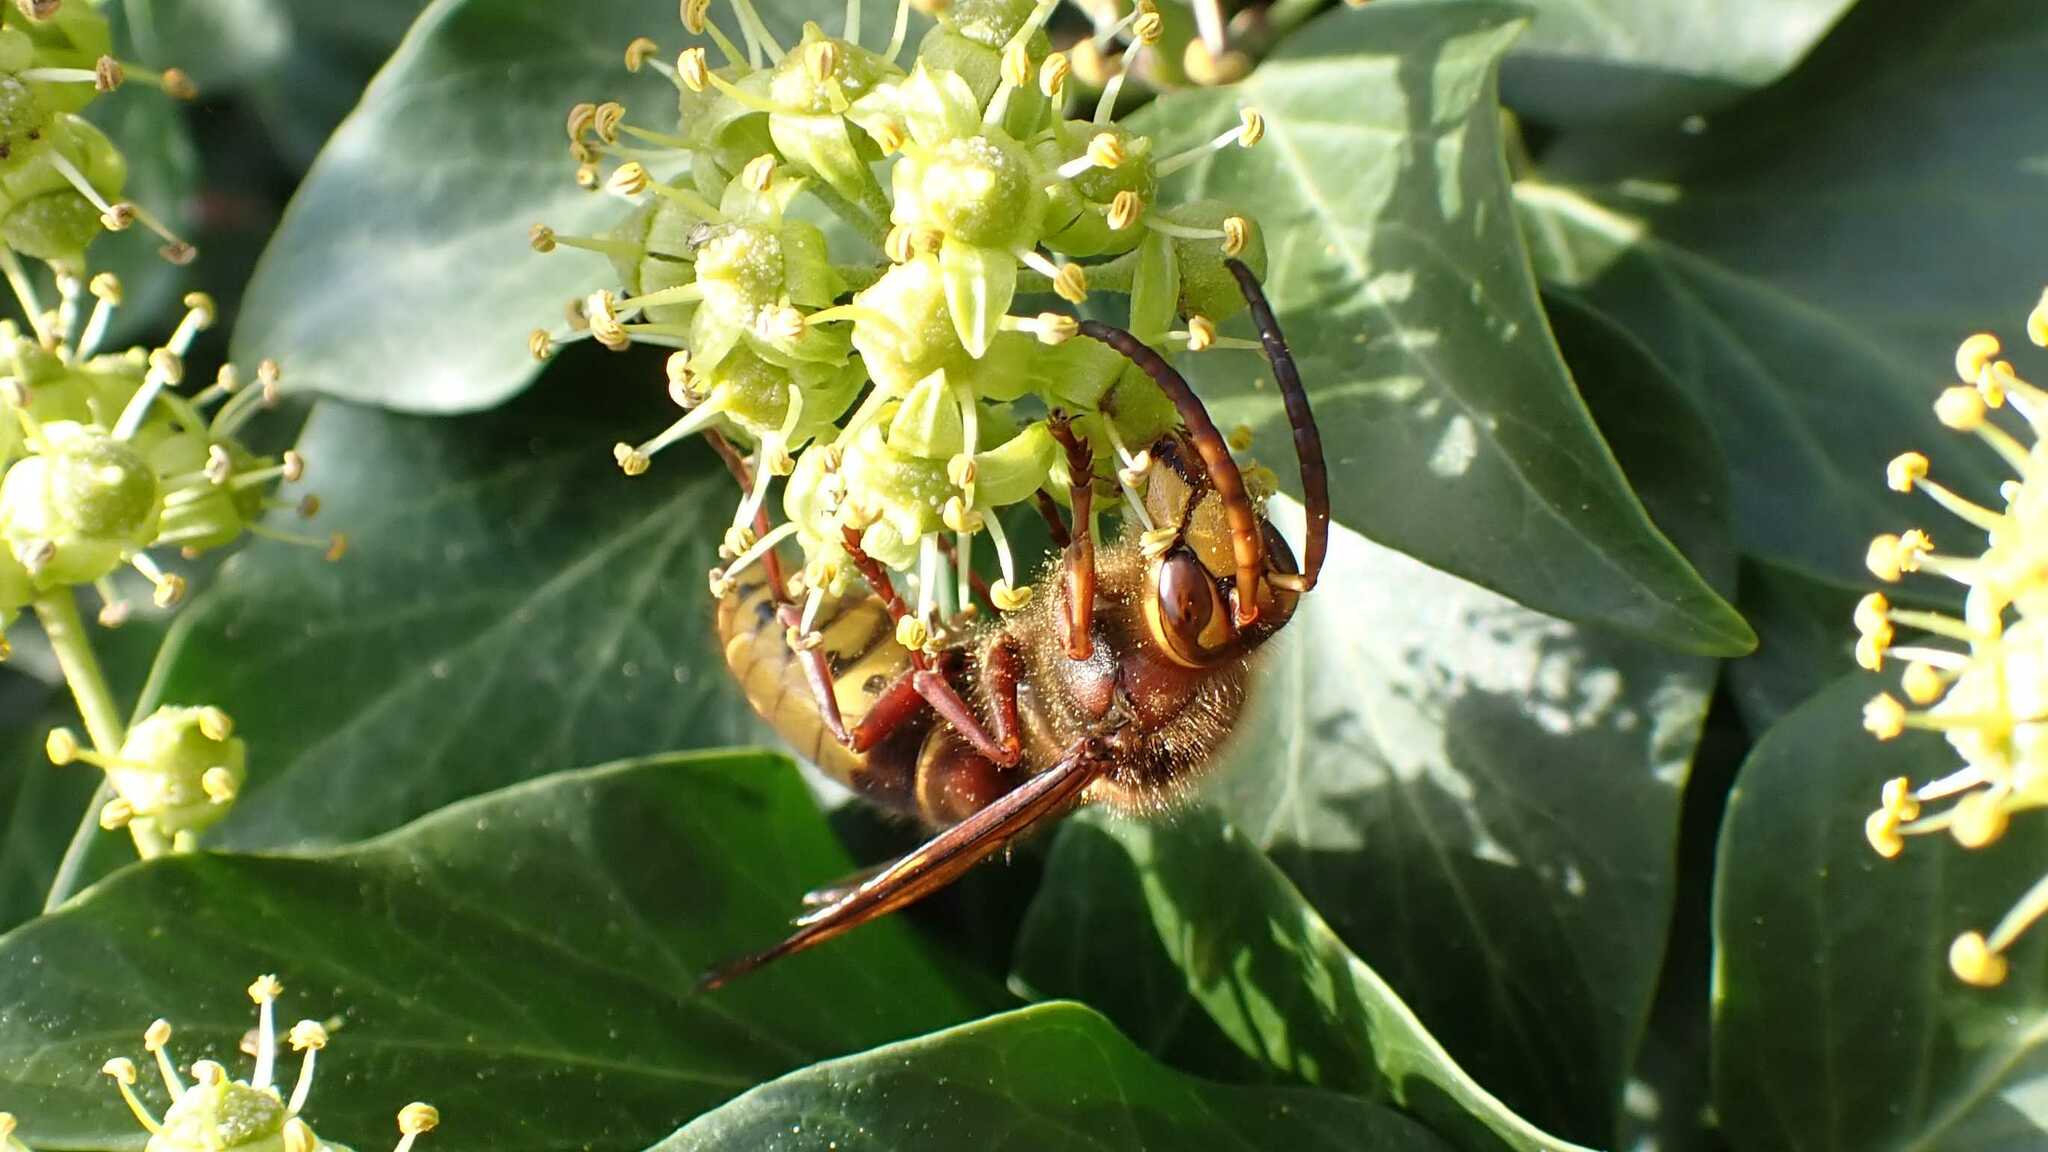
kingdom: Animalia
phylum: Arthropoda
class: Insecta
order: Hymenoptera
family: Vespidae
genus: Vespa
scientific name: Vespa crabro
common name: Hornet
